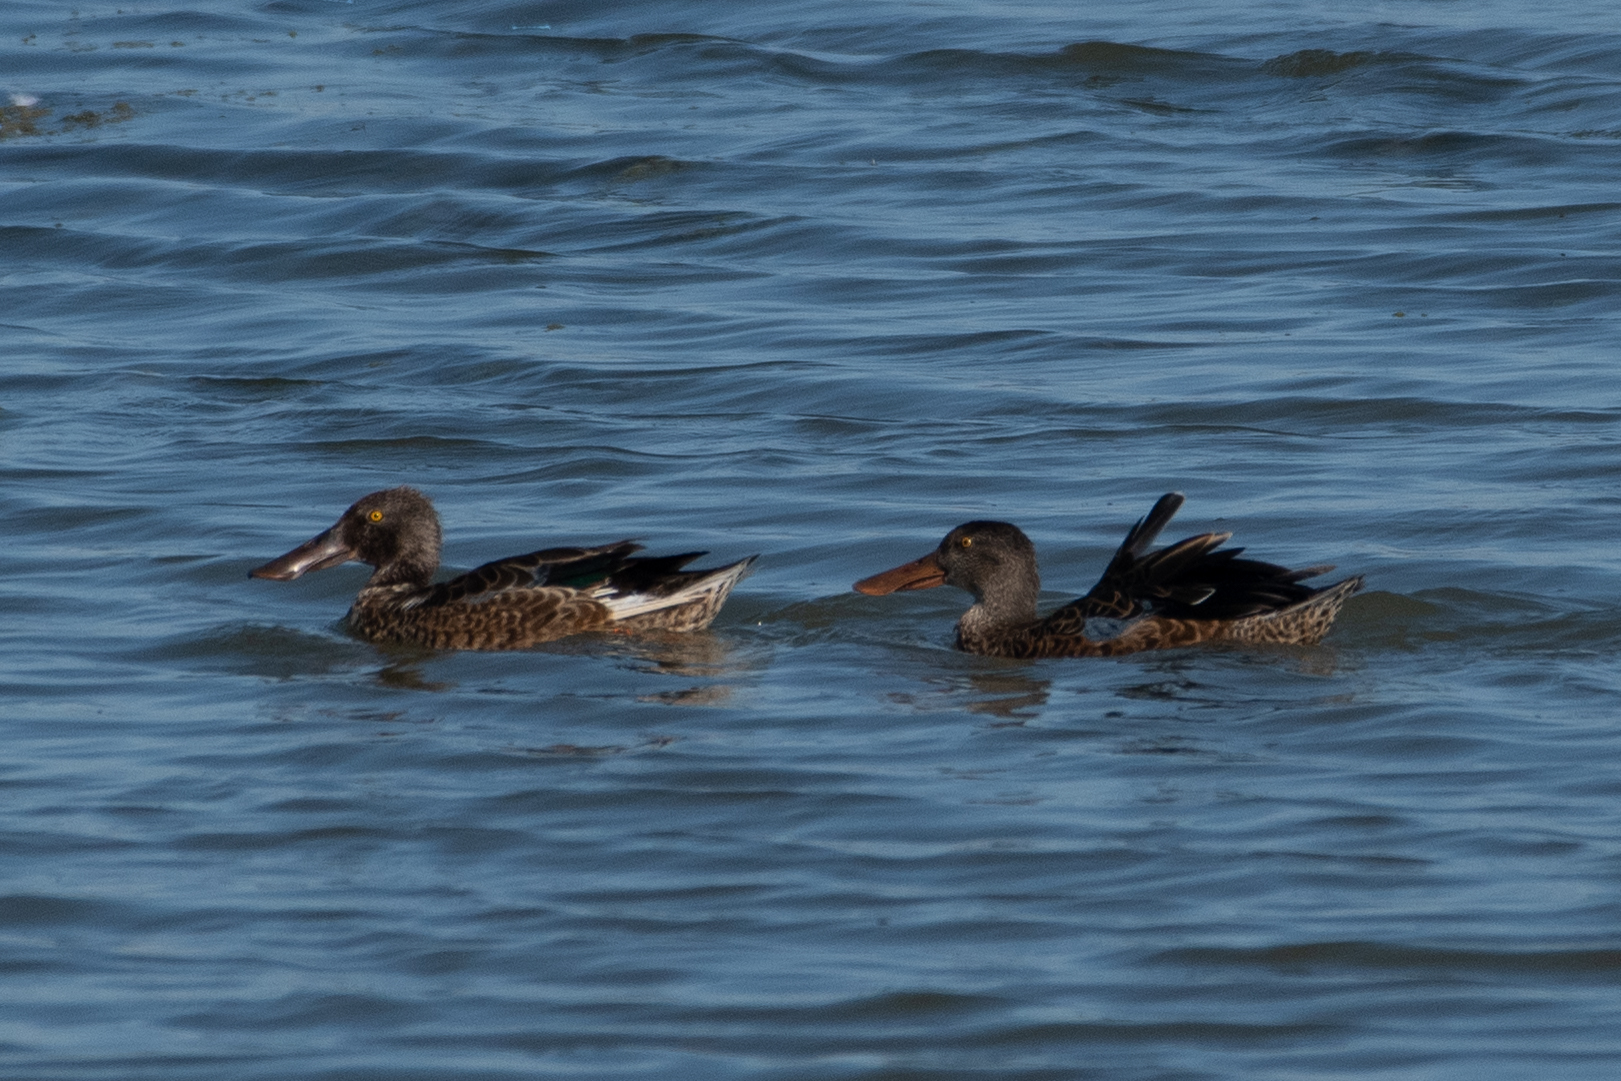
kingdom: Animalia
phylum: Chordata
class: Aves
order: Anseriformes
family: Anatidae
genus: Spatula
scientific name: Spatula clypeata
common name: Northern shoveler
